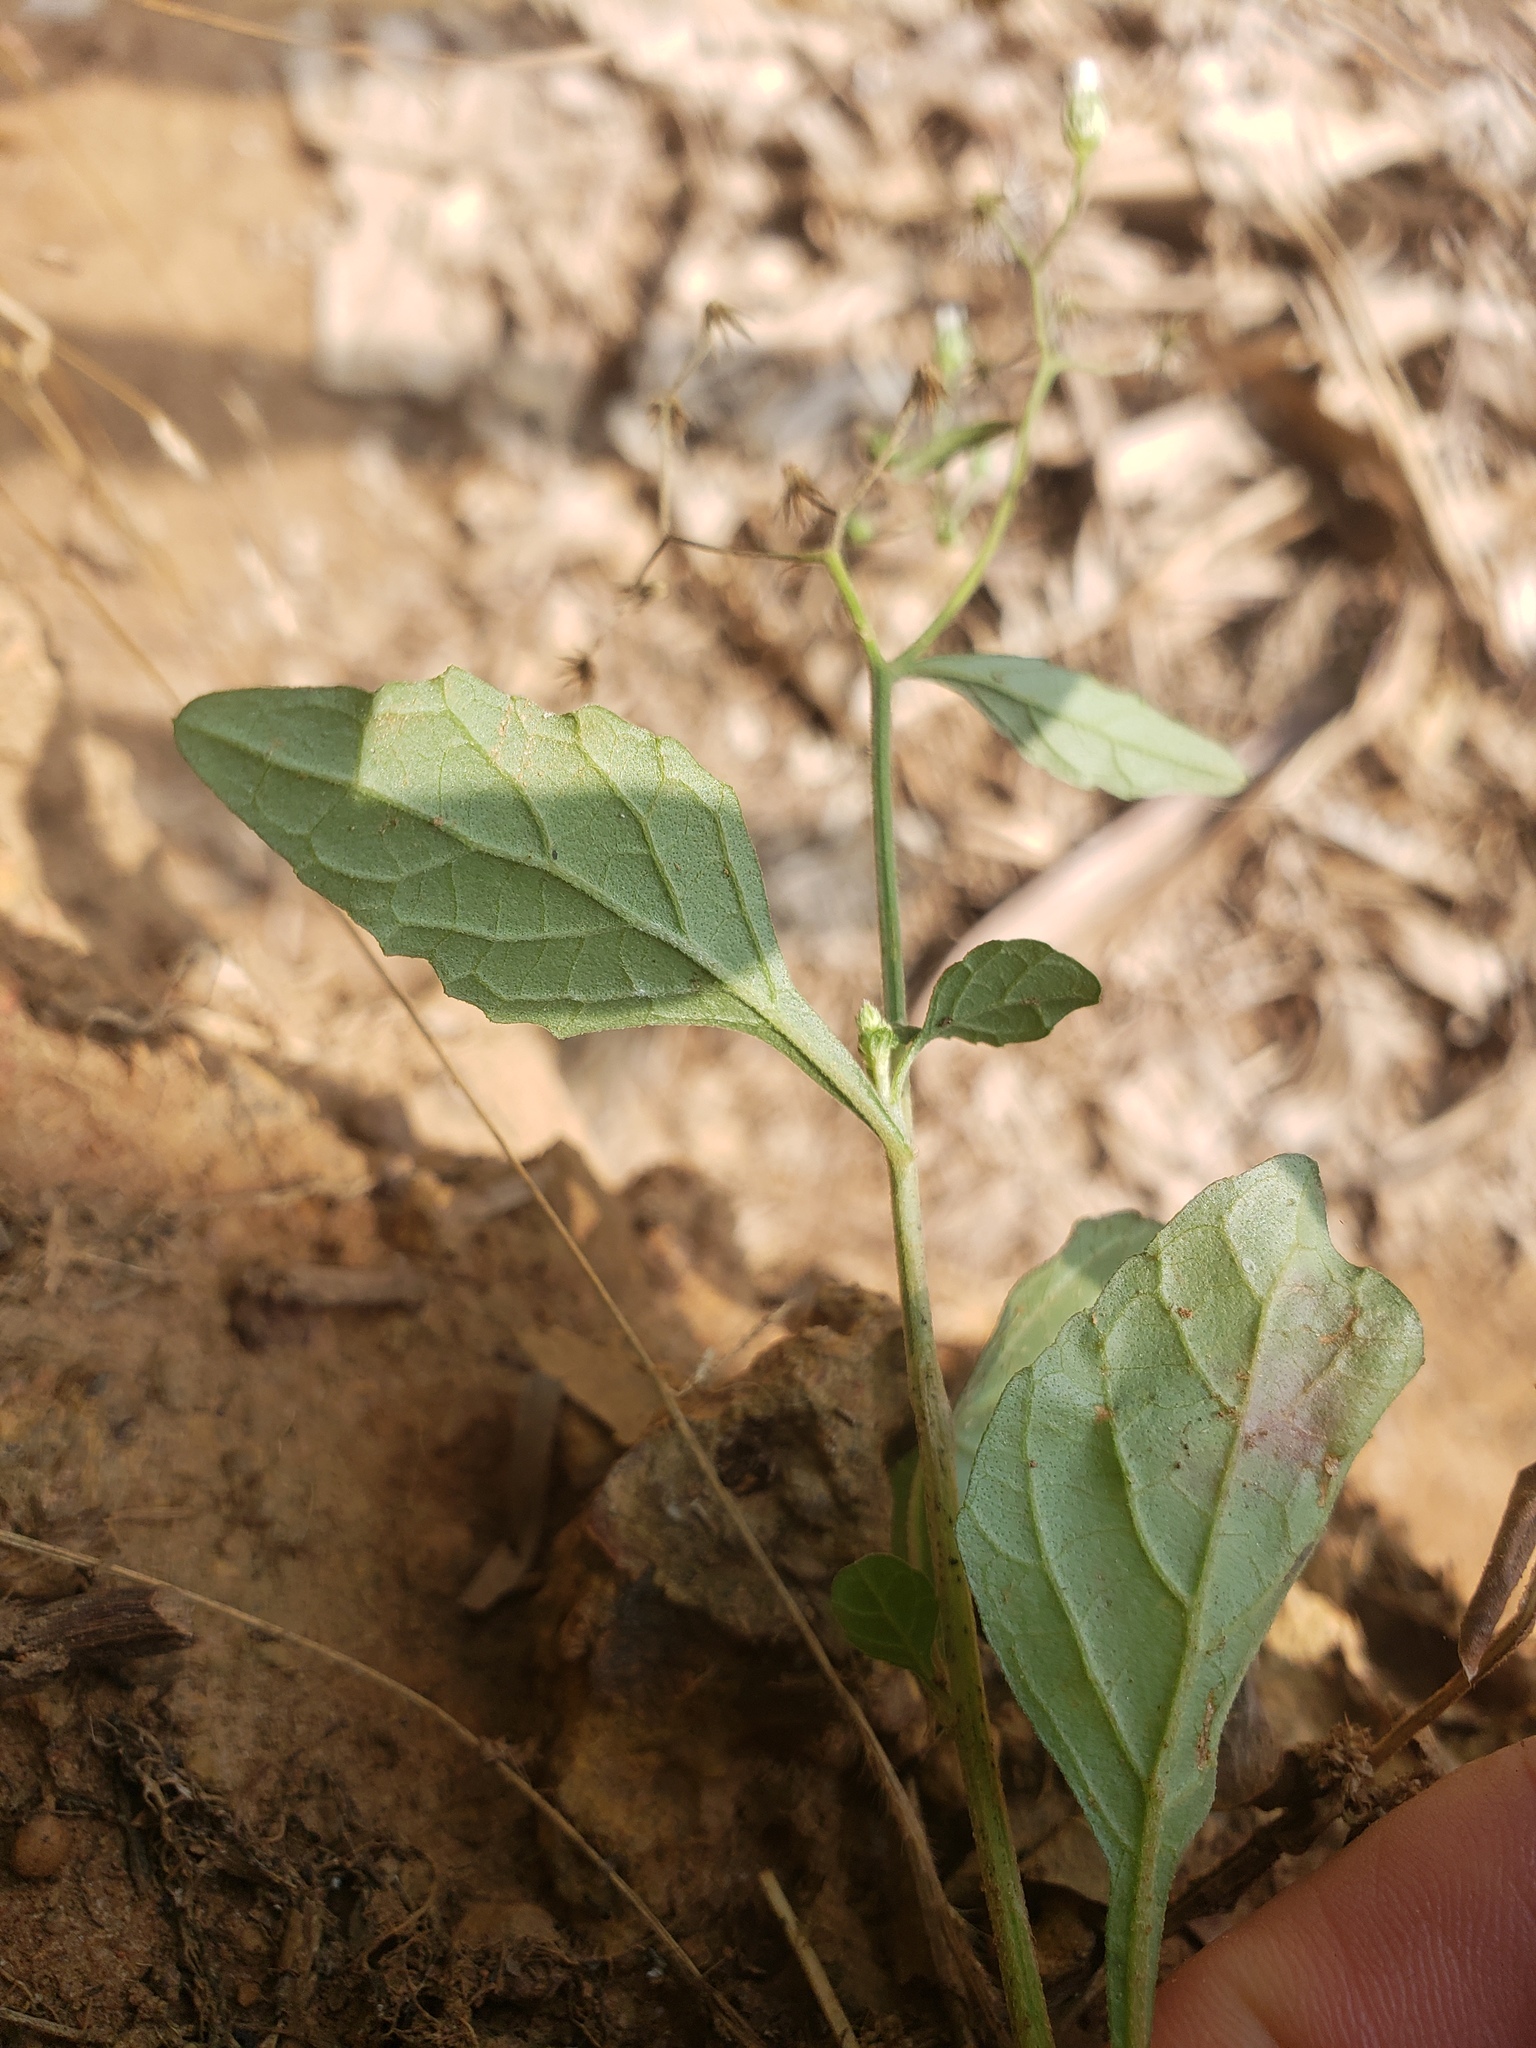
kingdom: Plantae
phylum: Tracheophyta
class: Magnoliopsida
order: Asterales
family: Asteraceae
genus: Cyanthillium
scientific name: Cyanthillium cinereum
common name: Little ironweed
